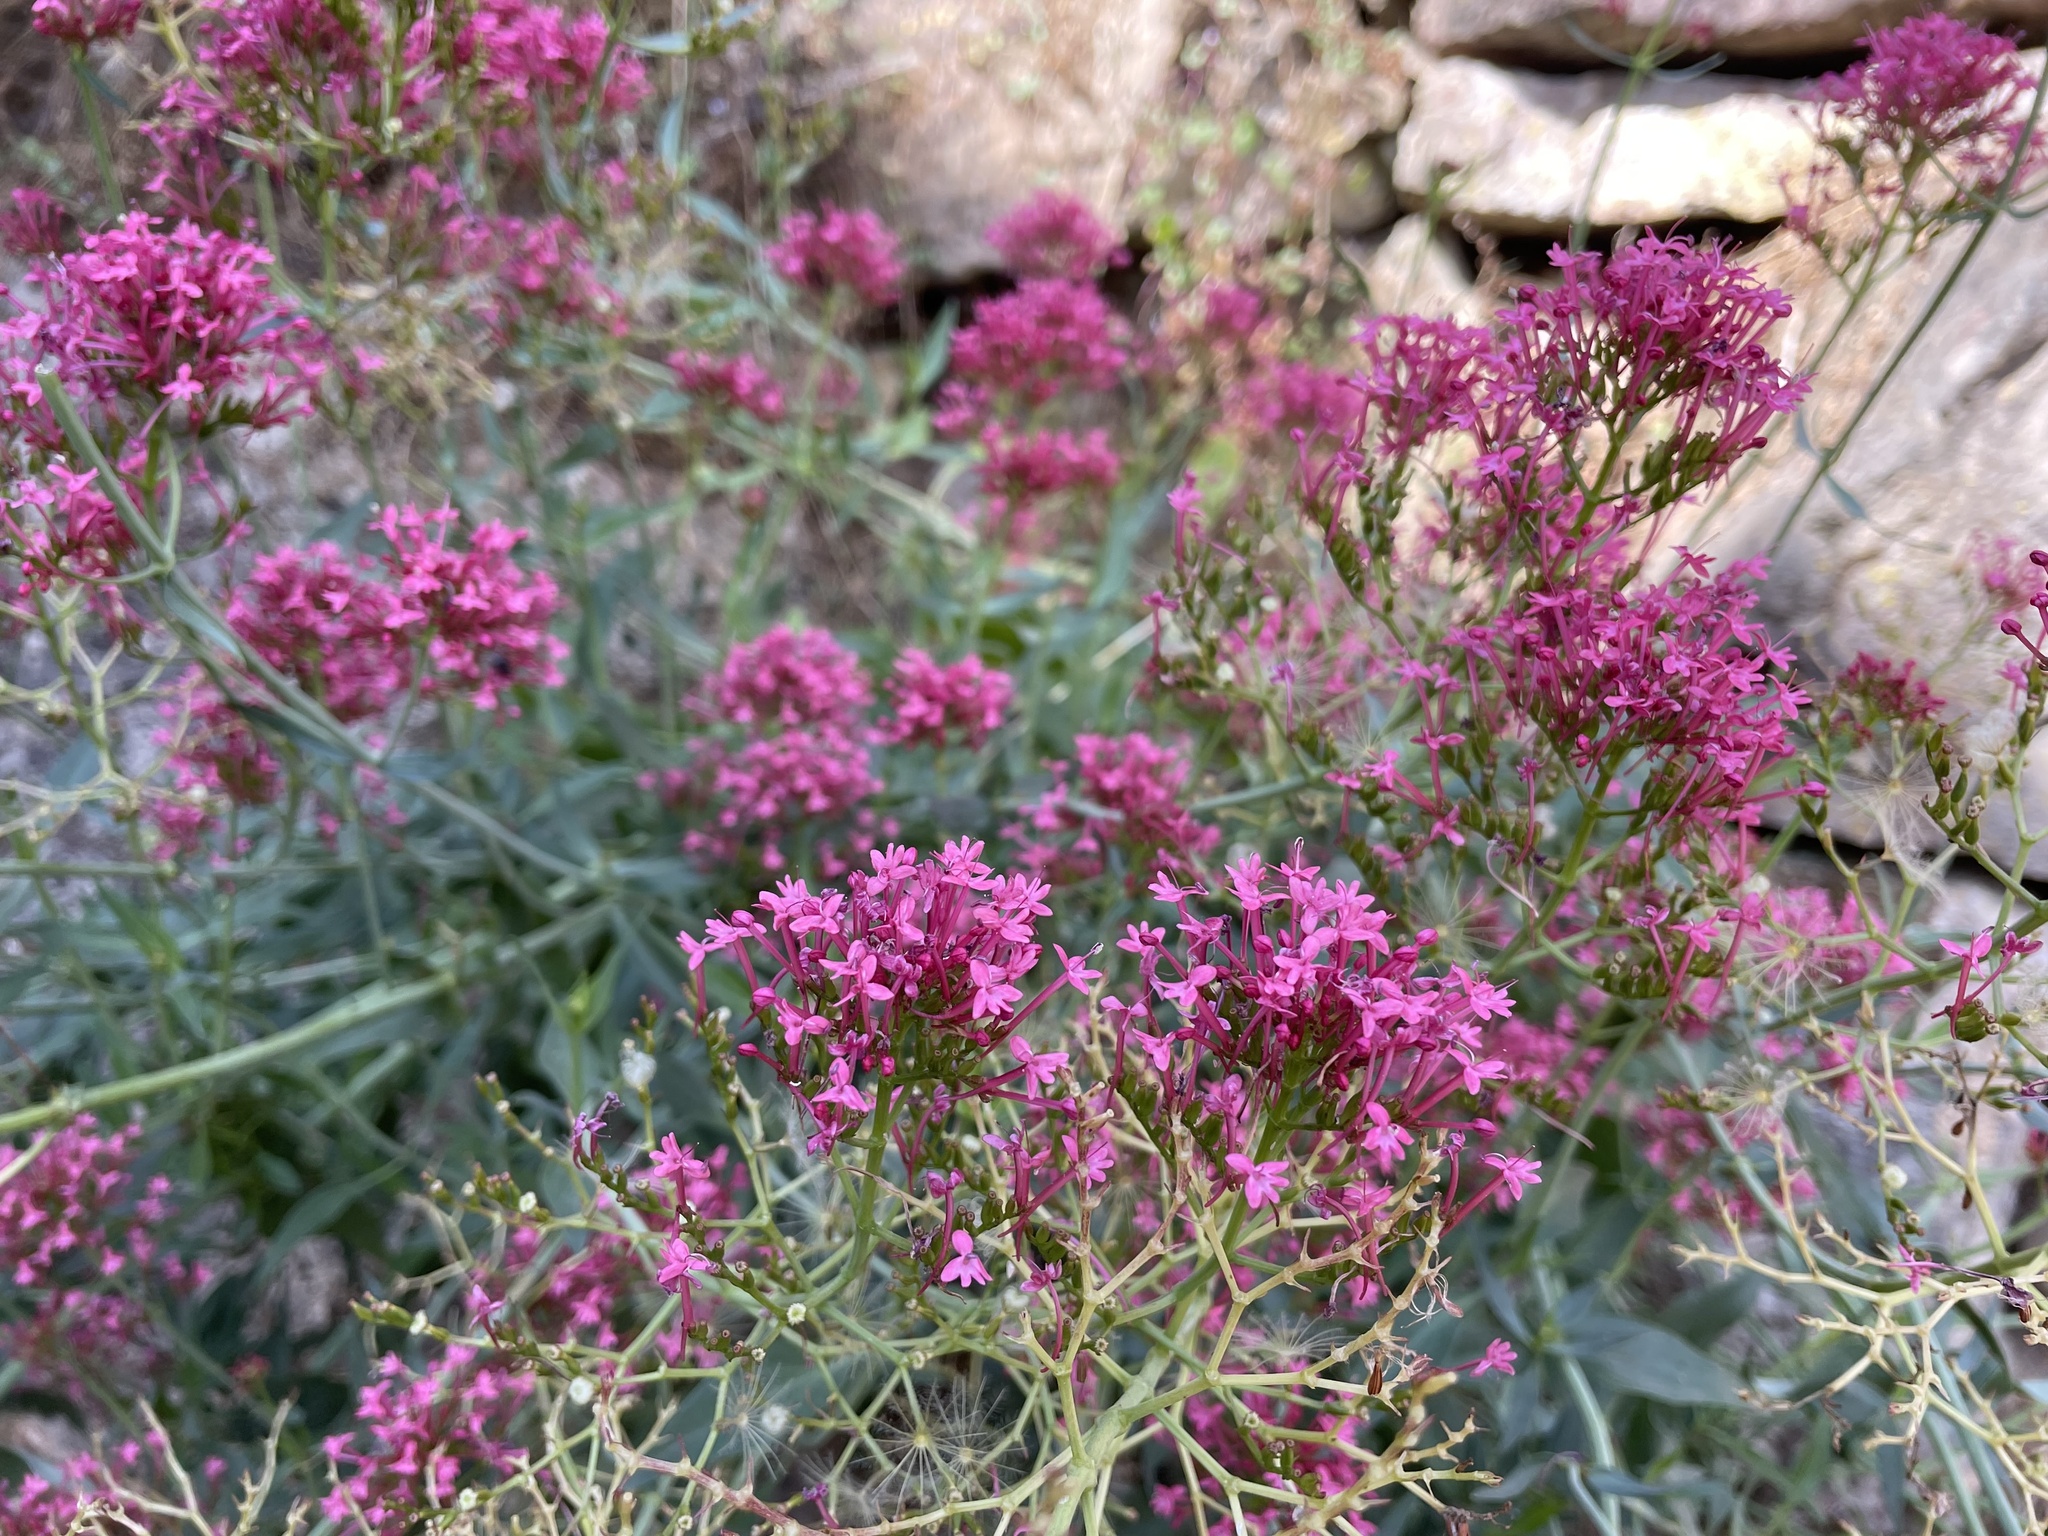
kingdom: Plantae
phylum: Tracheophyta
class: Magnoliopsida
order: Dipsacales
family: Caprifoliaceae
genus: Centranthus
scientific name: Centranthus ruber
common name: Red valerian
